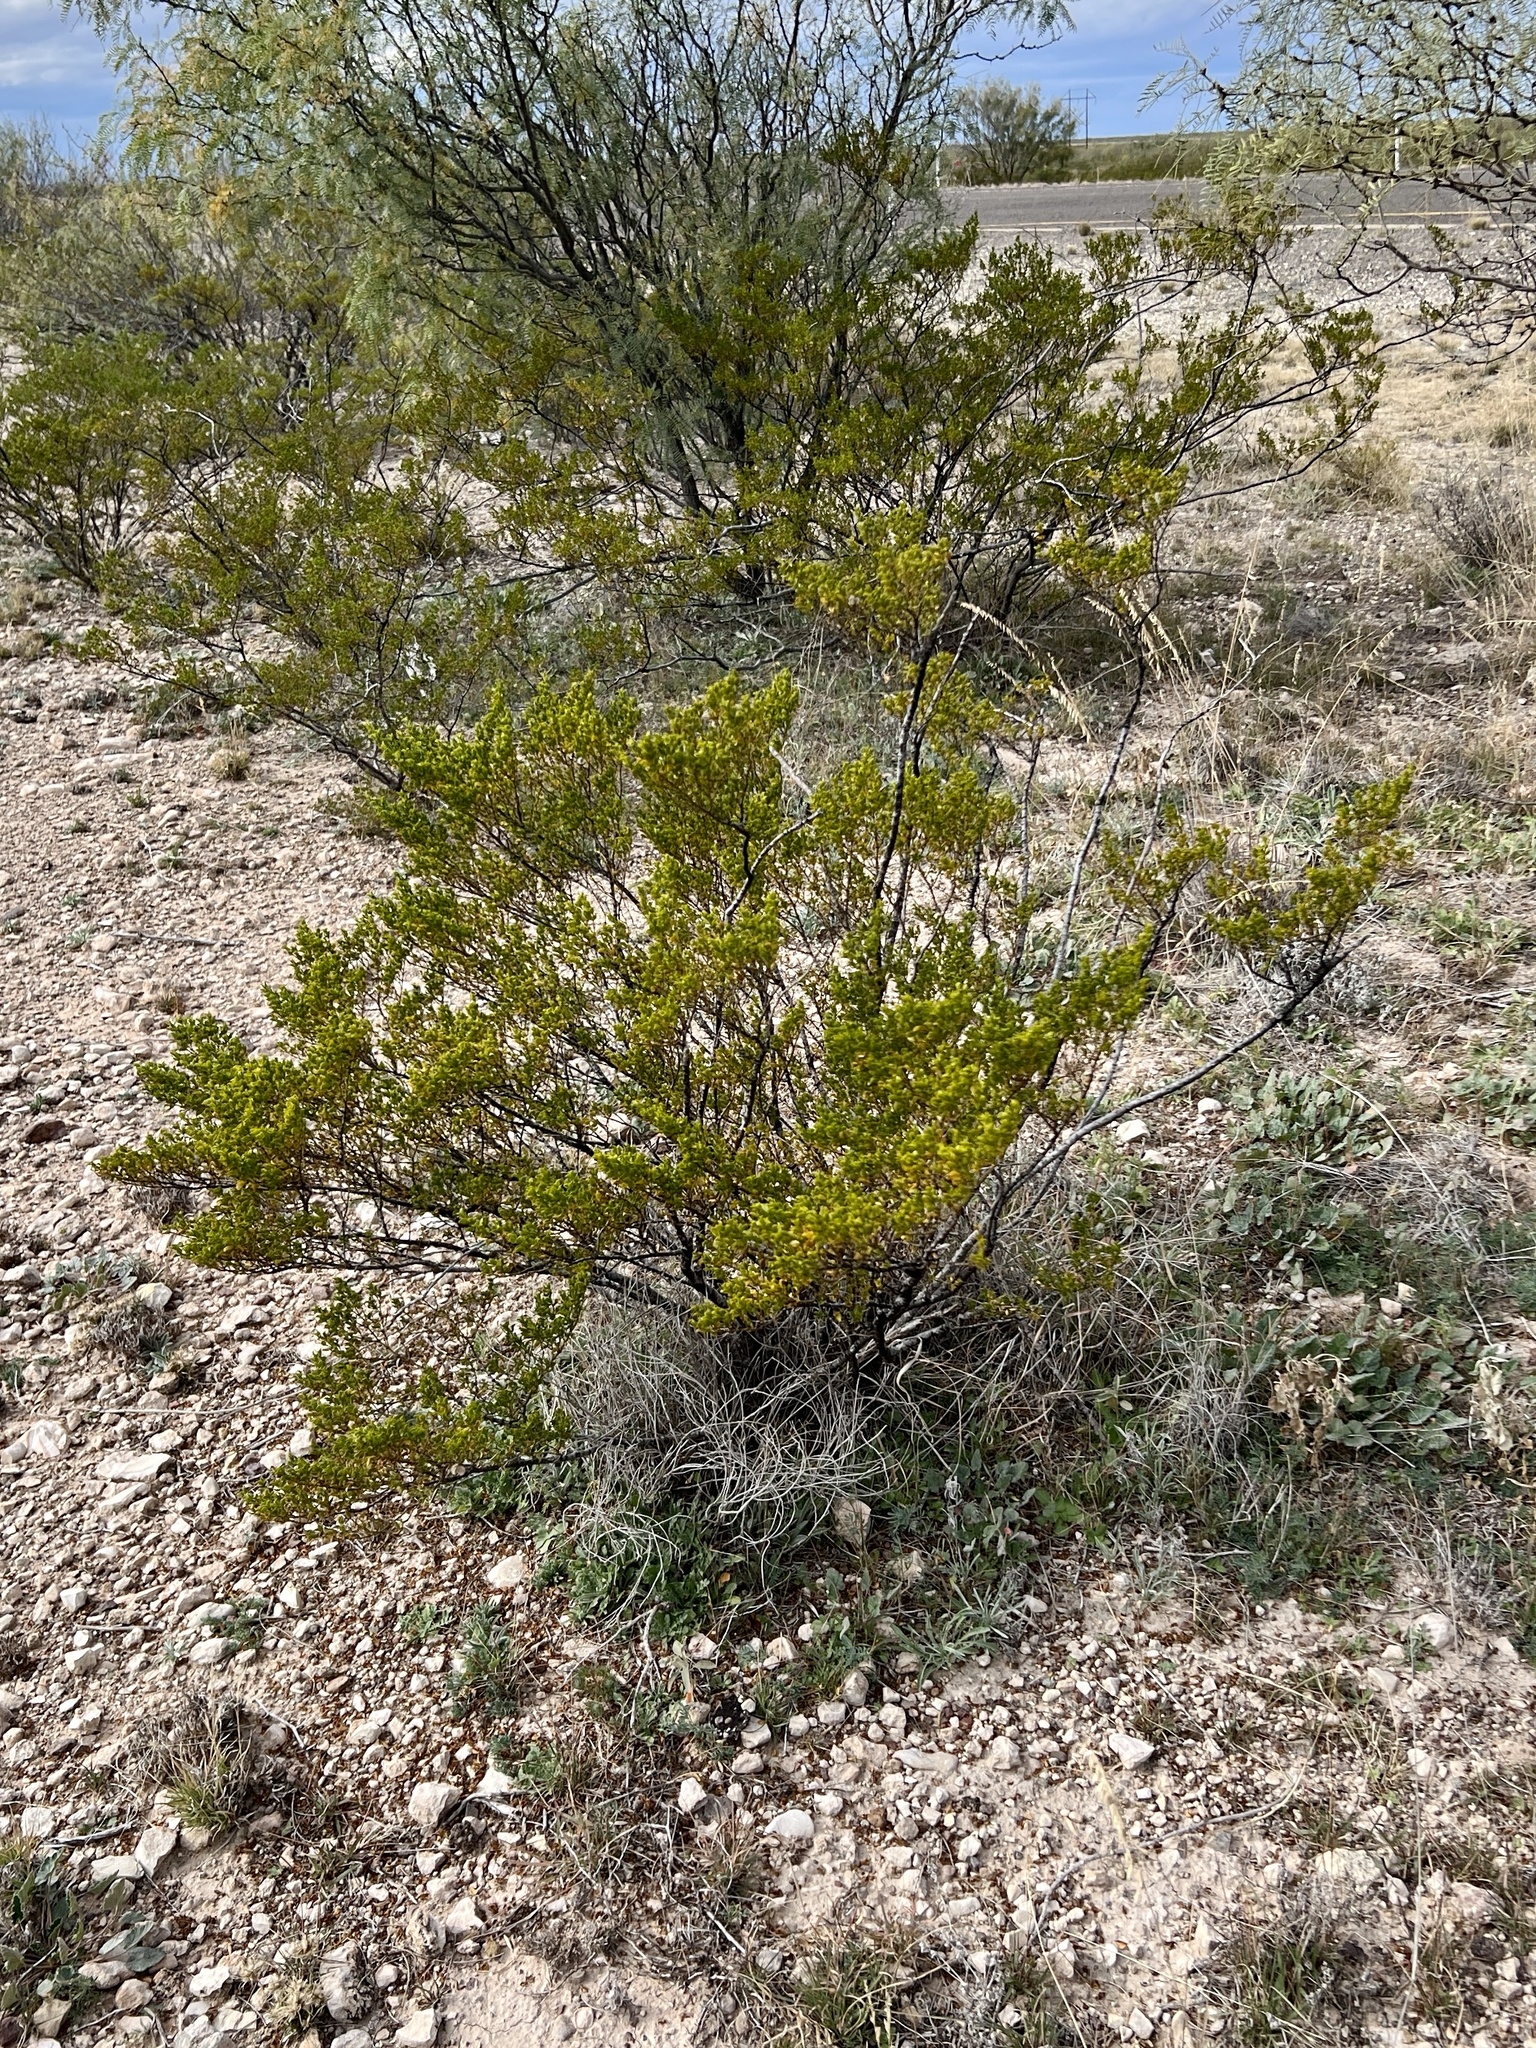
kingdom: Plantae
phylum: Tracheophyta
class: Magnoliopsida
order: Zygophyllales
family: Zygophyllaceae
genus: Larrea
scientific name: Larrea tridentata
